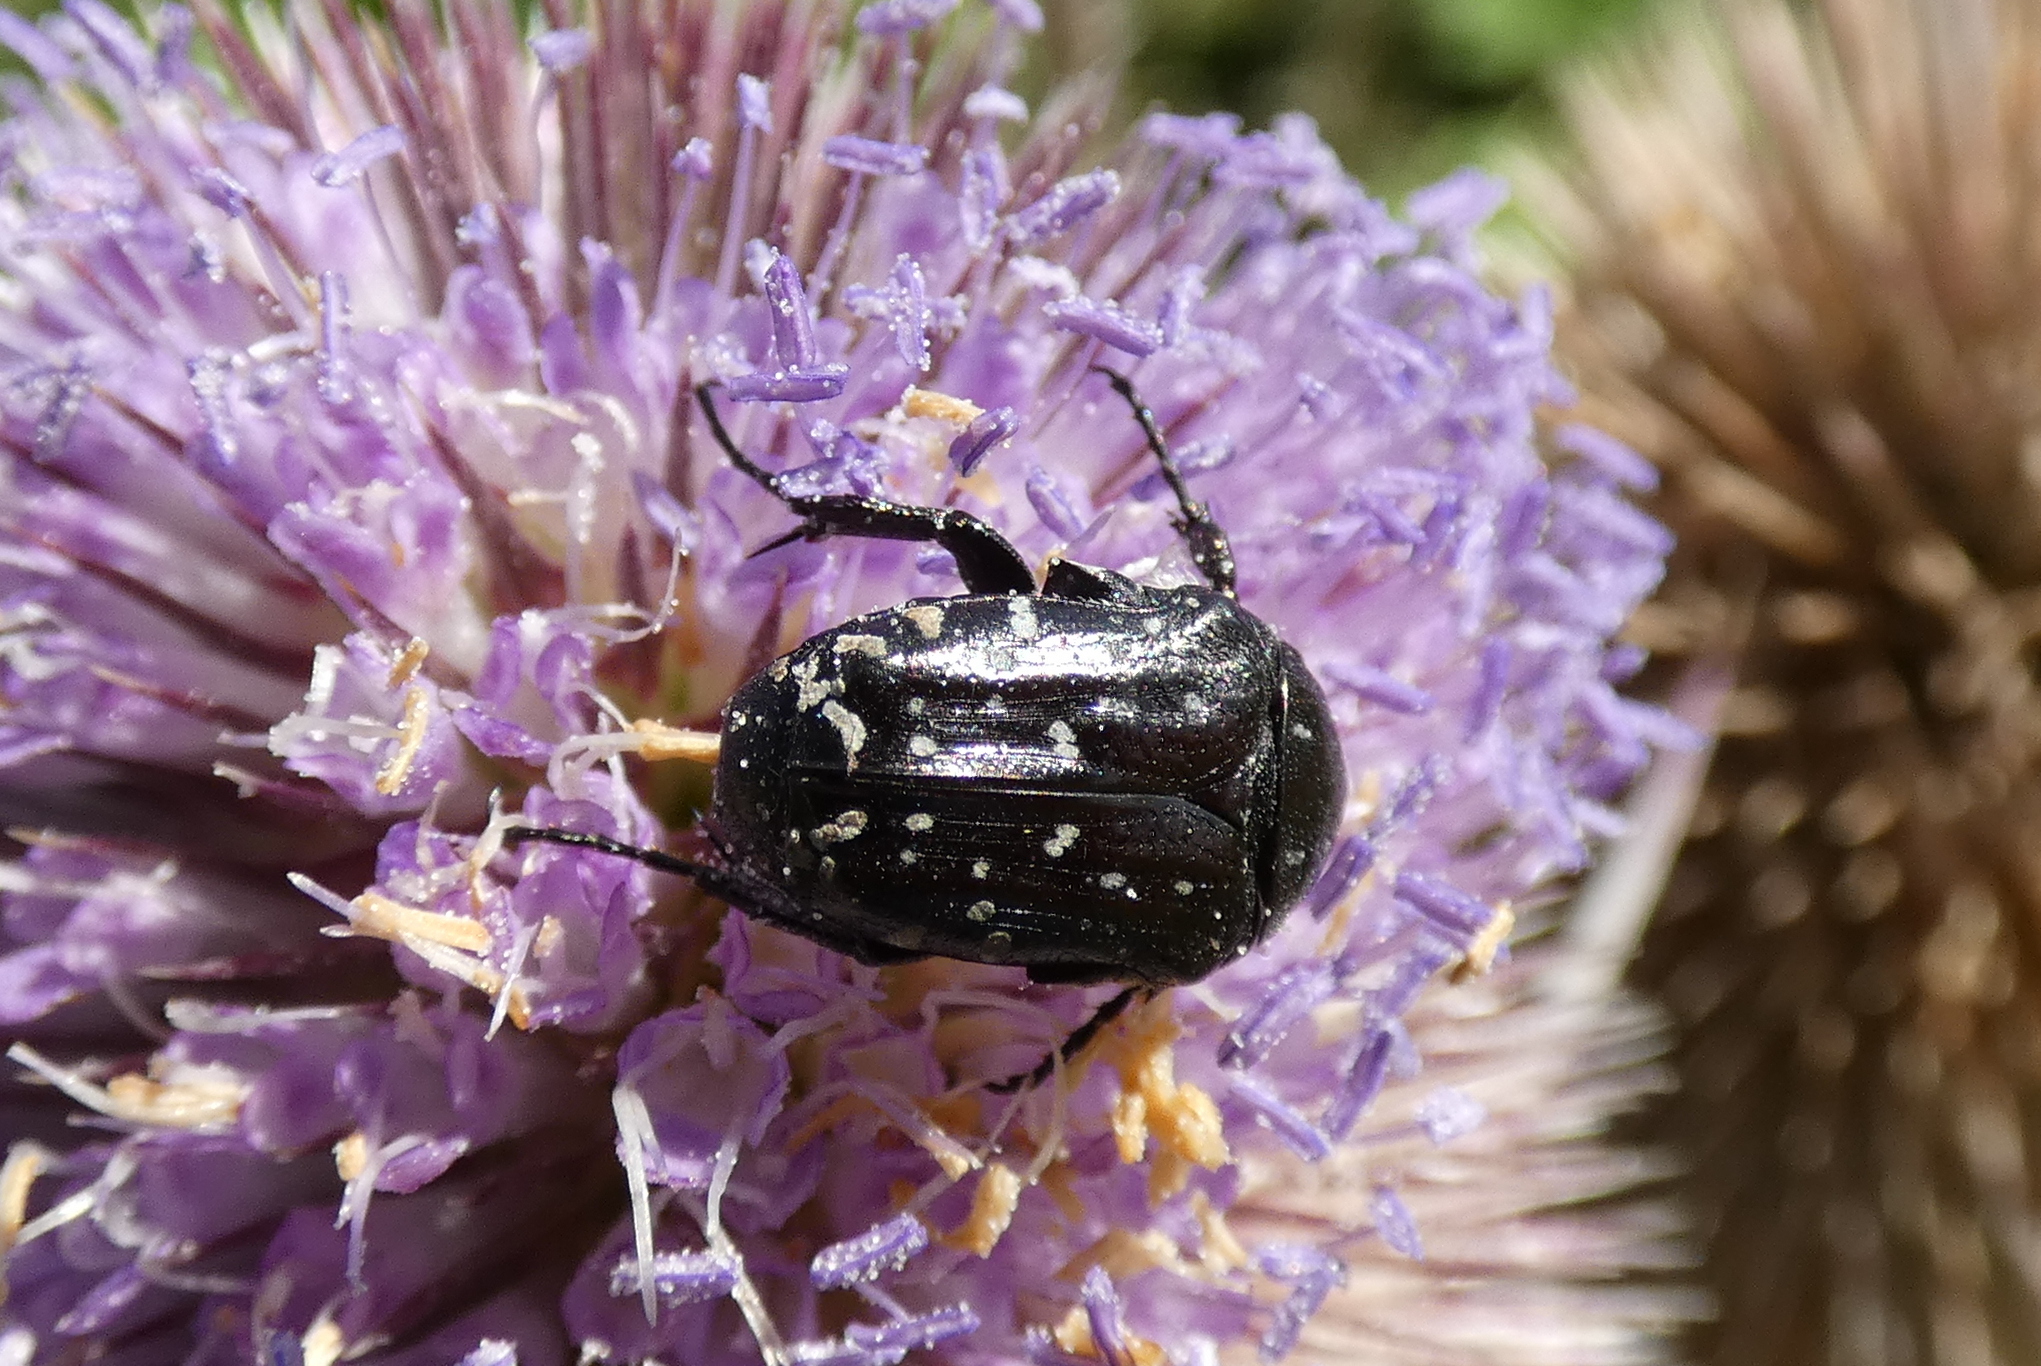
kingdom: Animalia
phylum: Arthropoda
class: Insecta
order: Coleoptera
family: Scarabaeidae
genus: Oxythyrea
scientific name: Oxythyrea funesta
